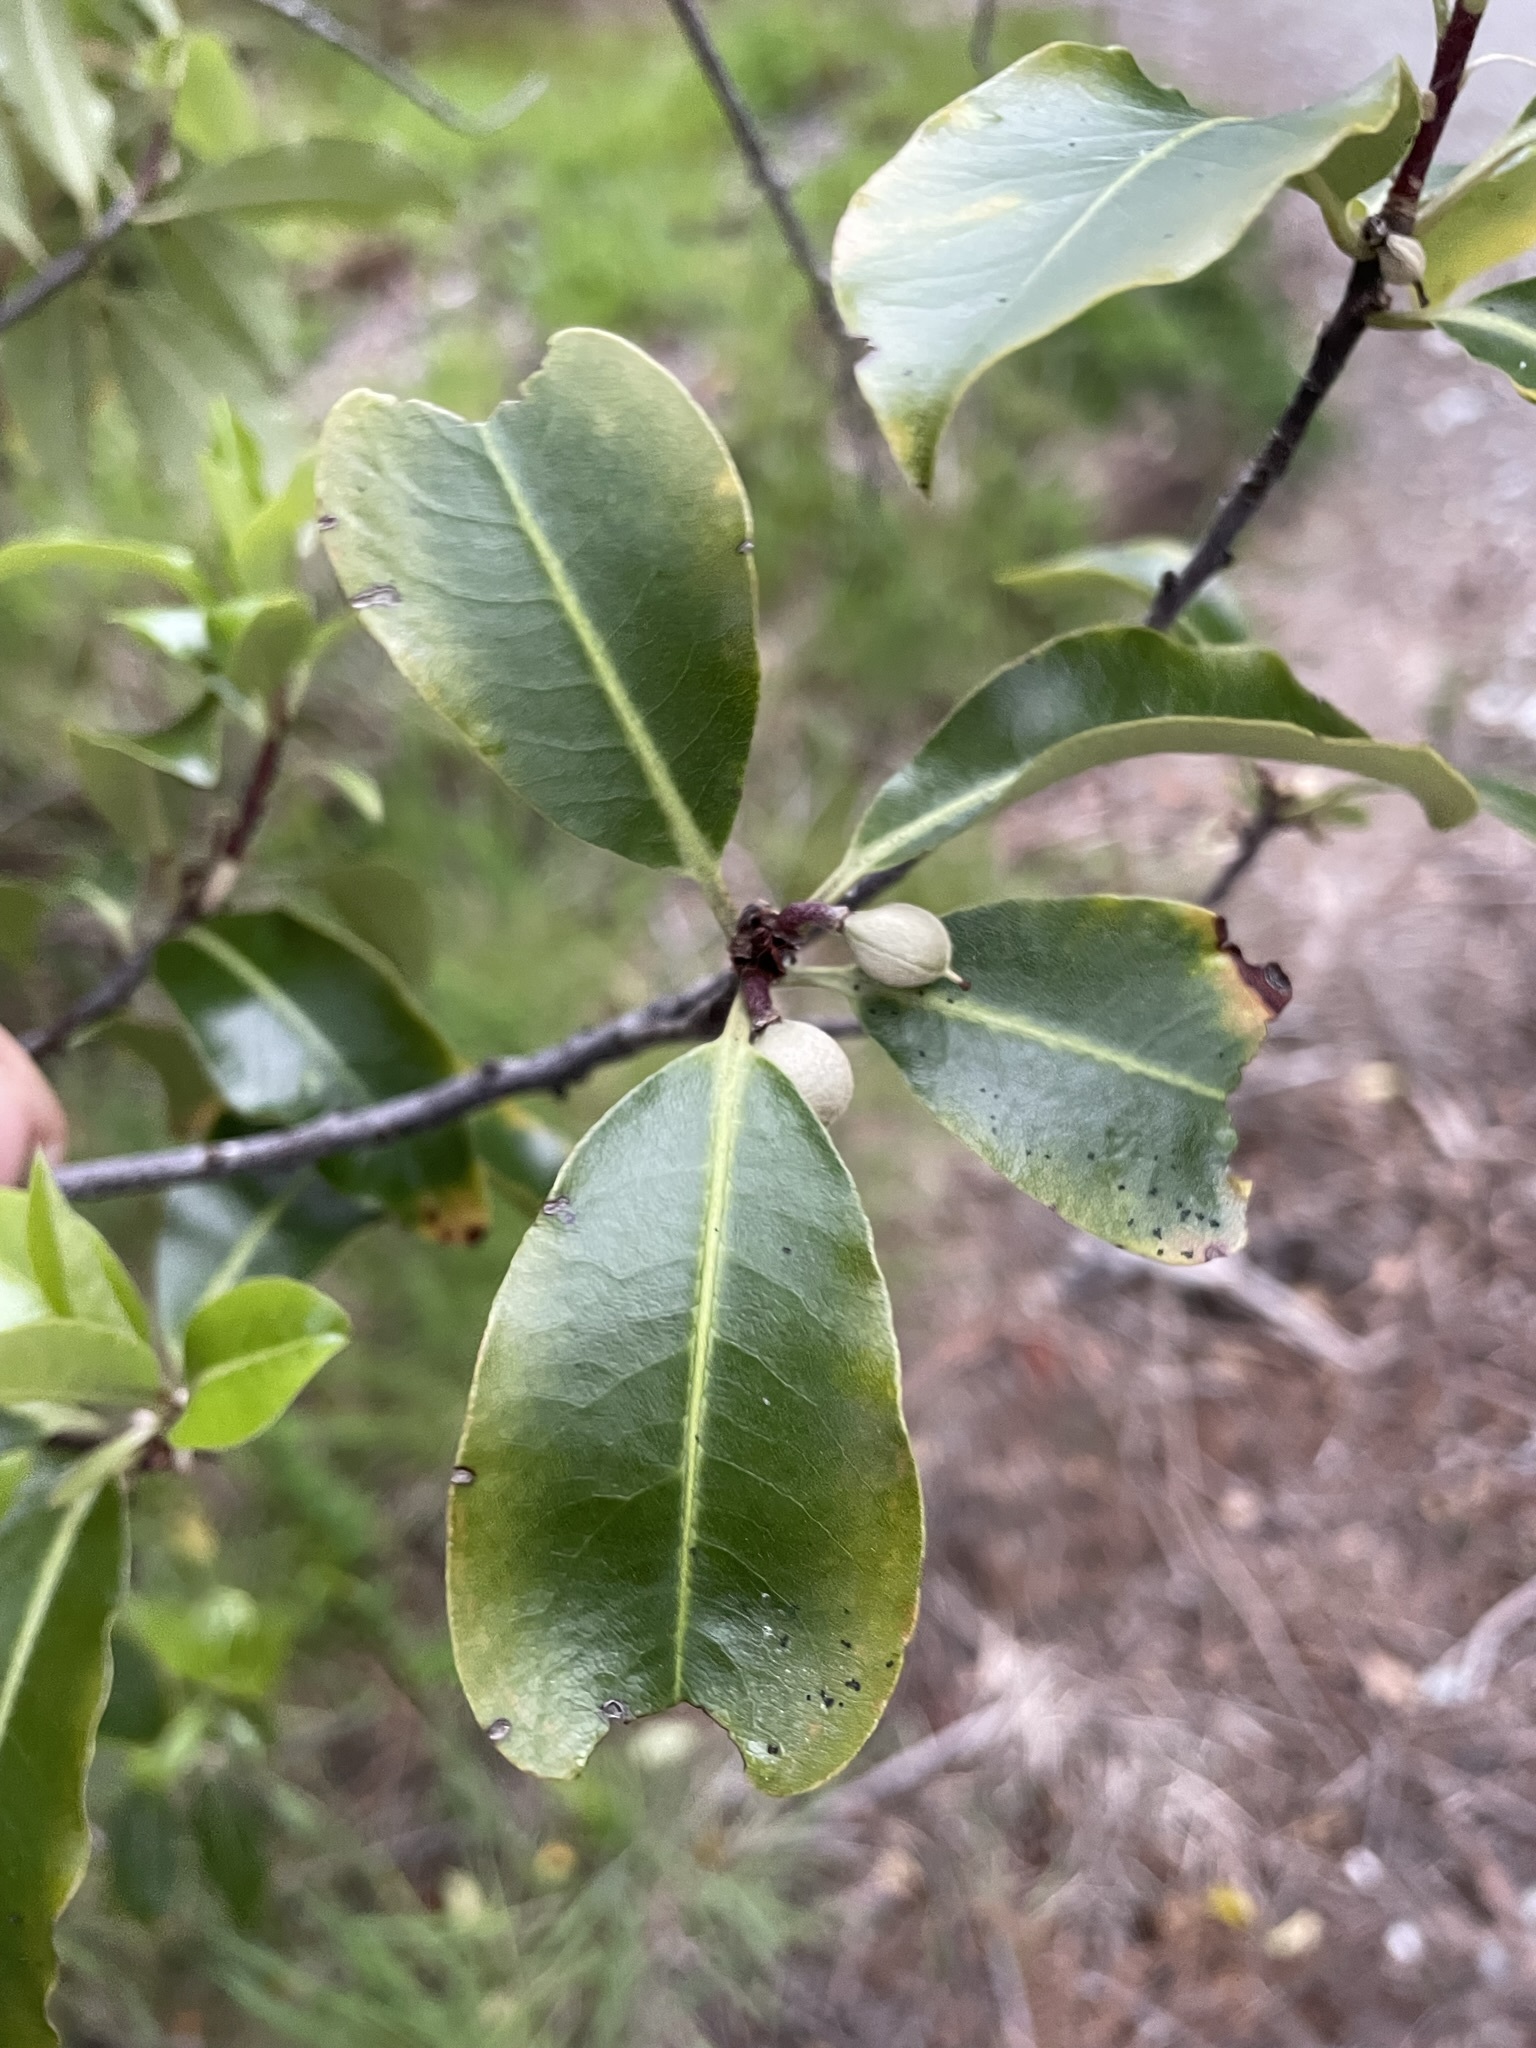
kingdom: Plantae
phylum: Tracheophyta
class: Magnoliopsida
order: Apiales
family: Pittosporaceae
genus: Pittosporum
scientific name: Pittosporum colensoi
